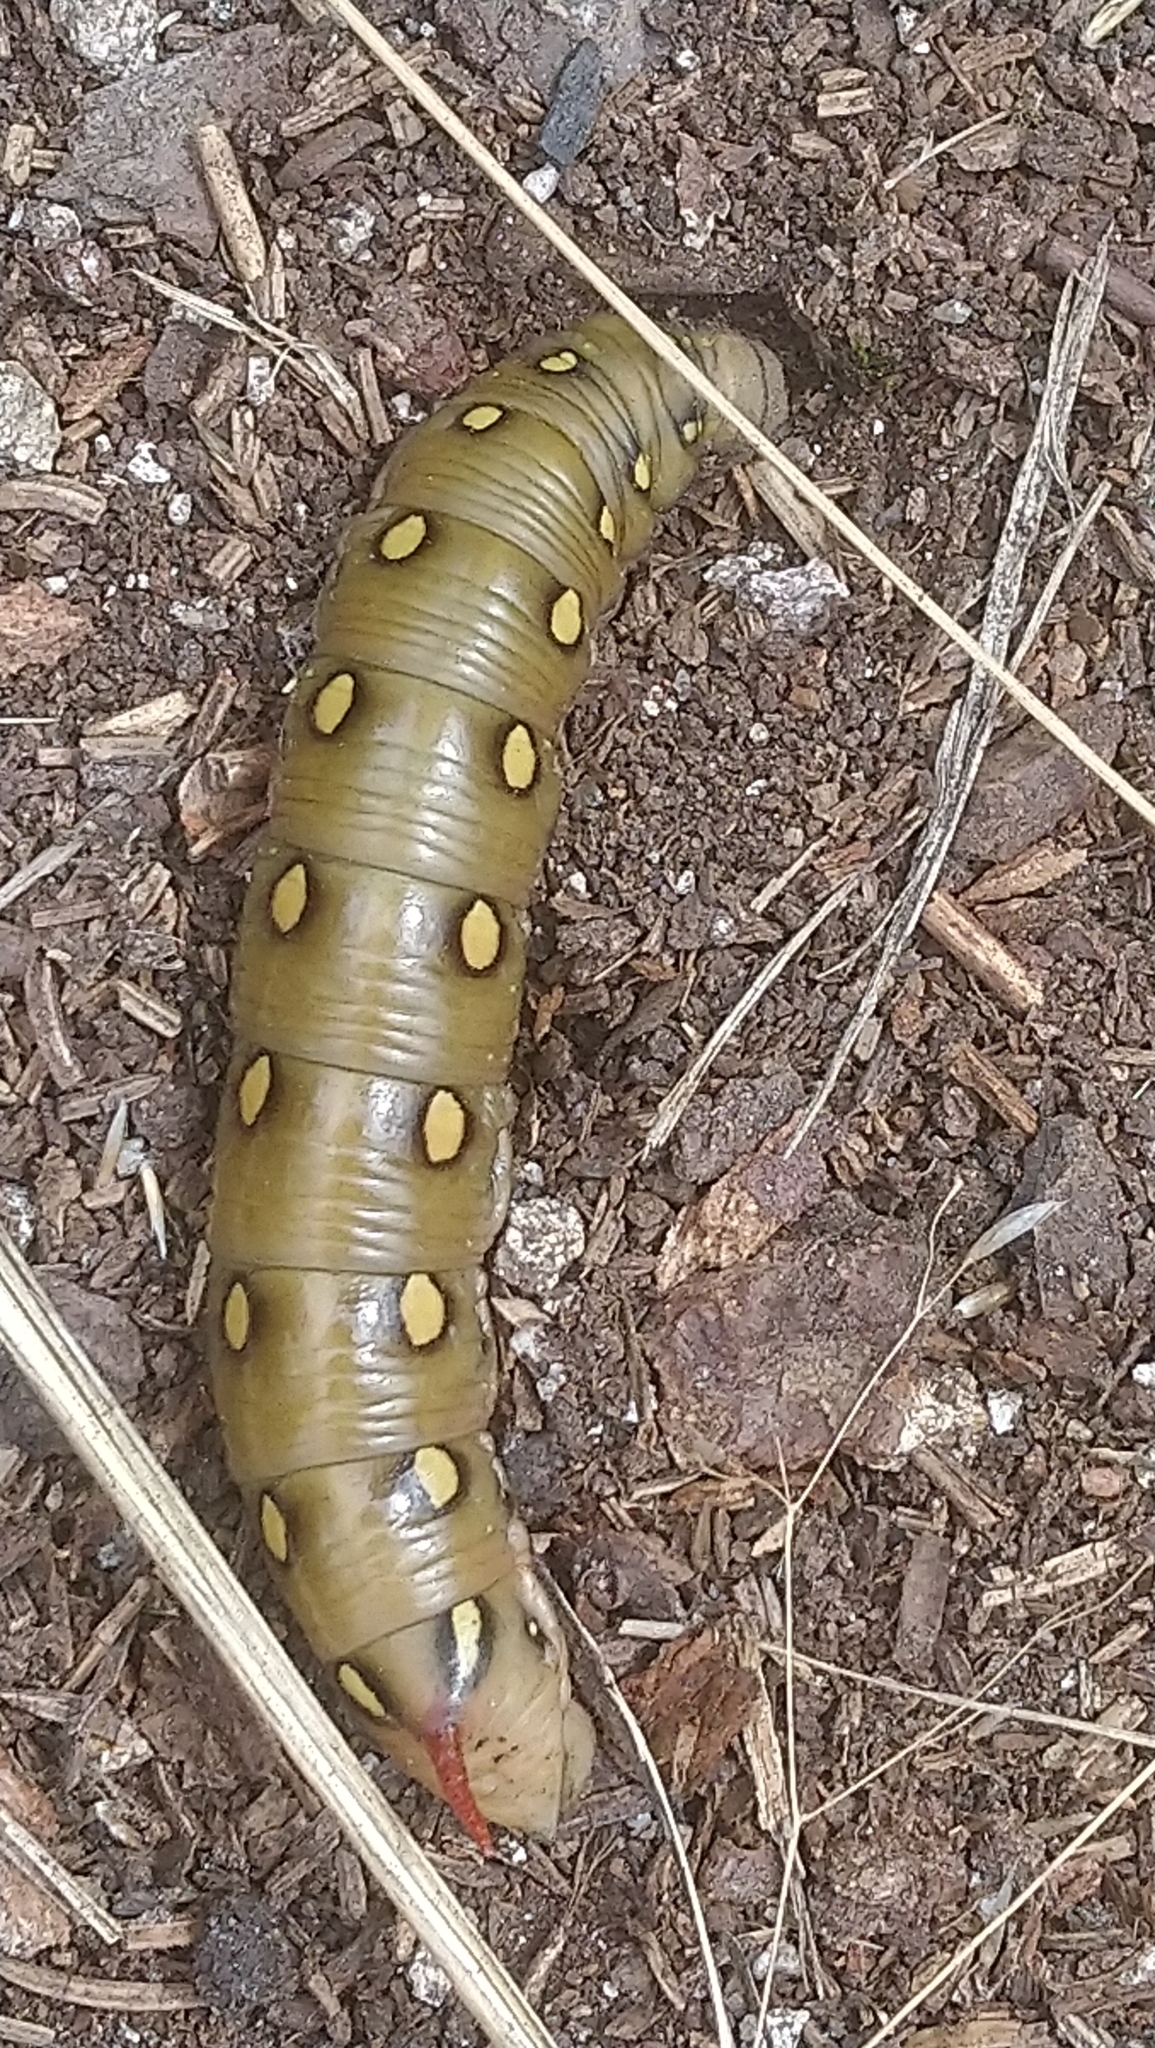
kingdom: Animalia
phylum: Arthropoda
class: Insecta
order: Lepidoptera
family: Sphingidae
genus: Hyles
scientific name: Hyles gallii
